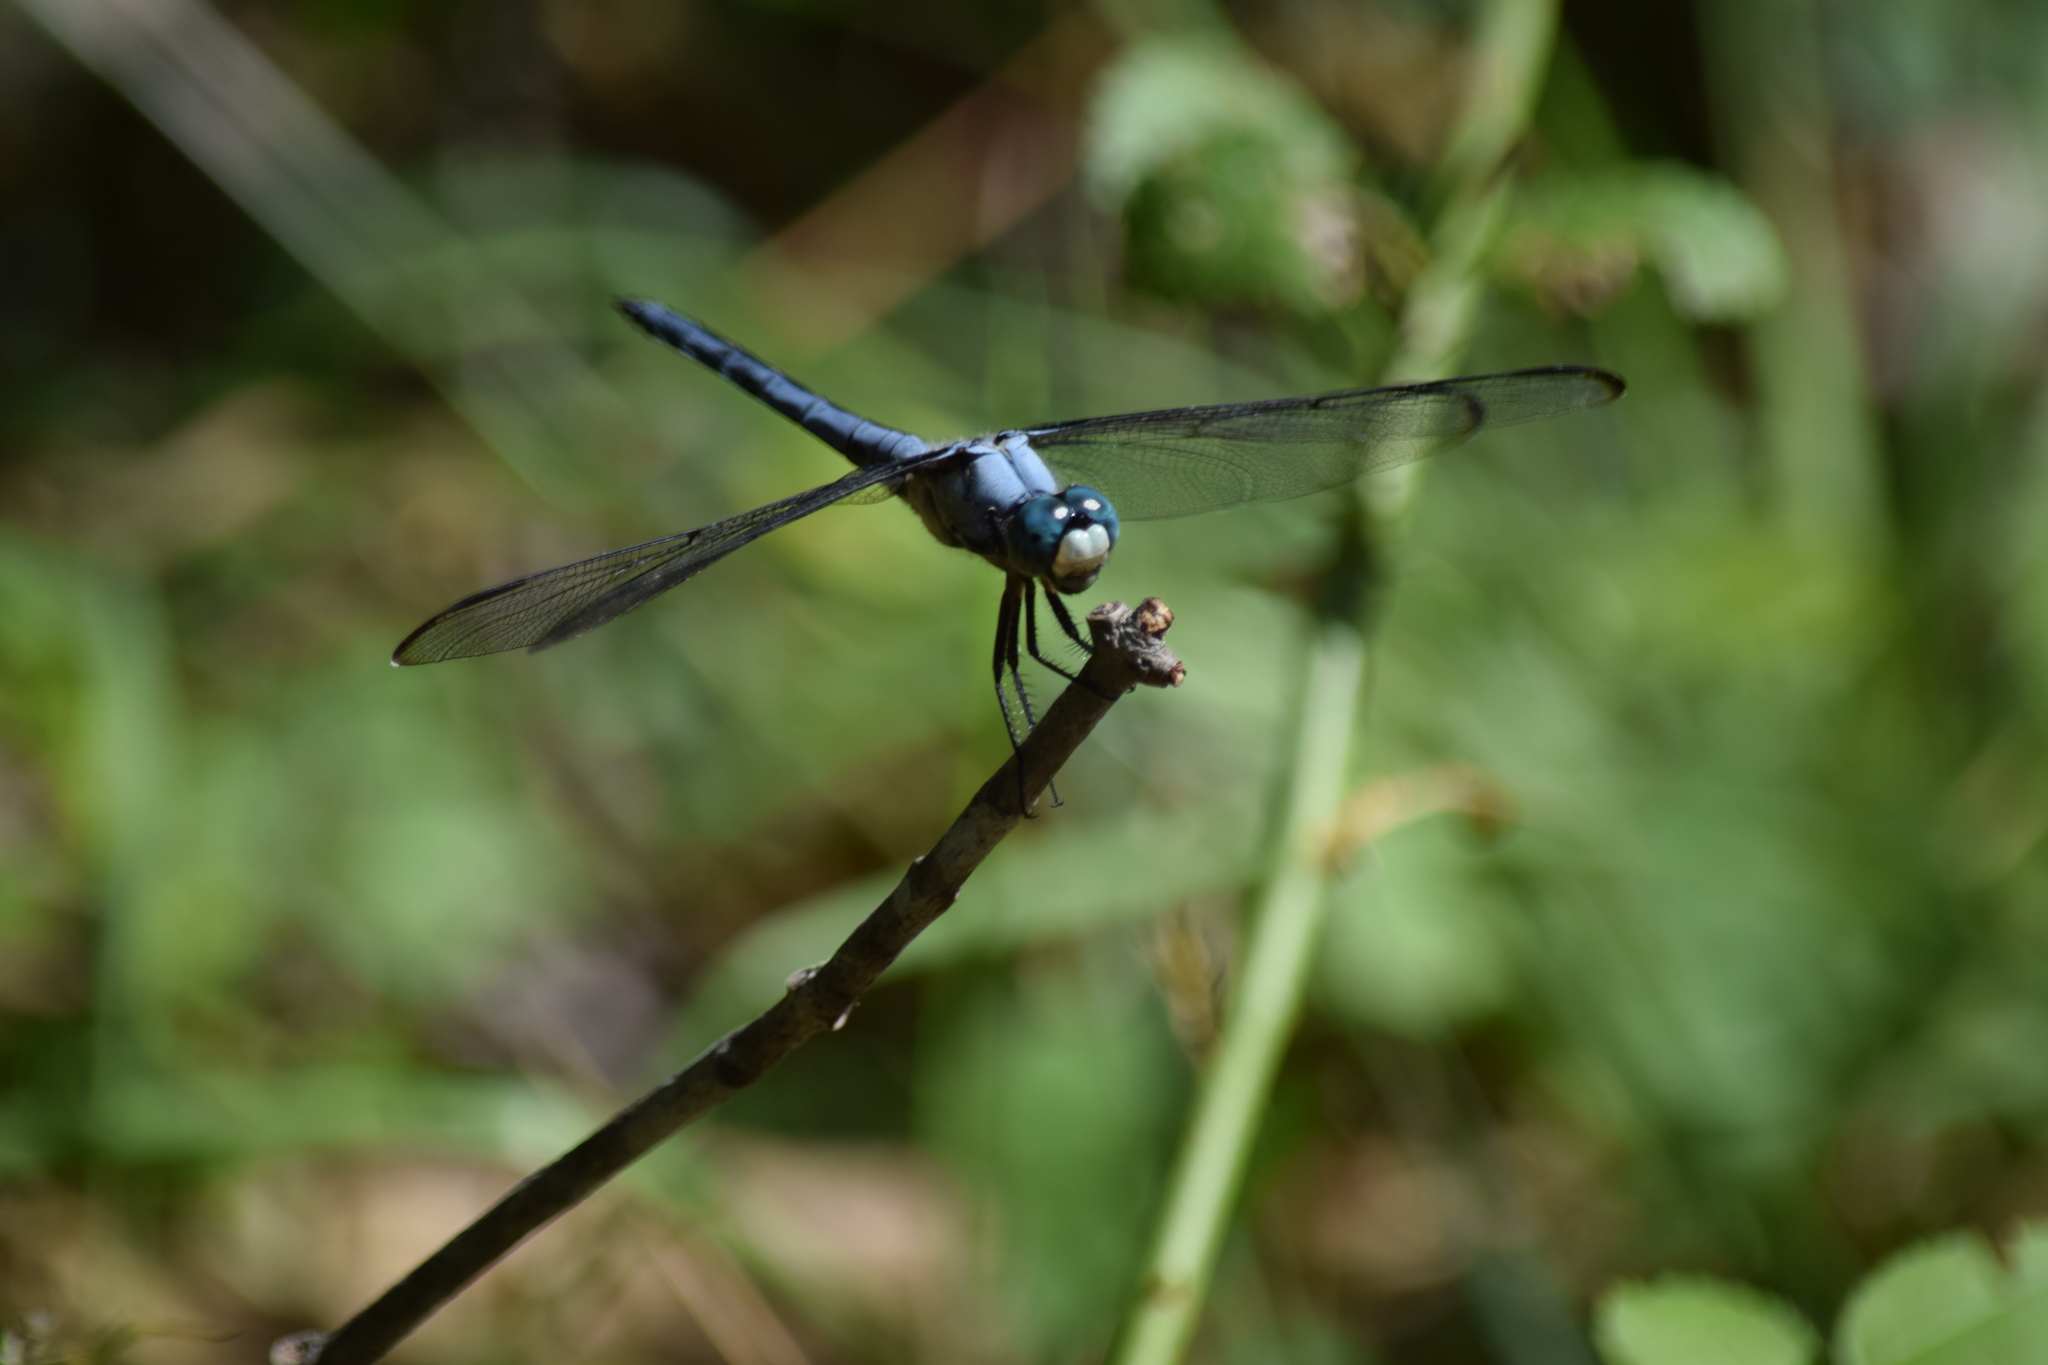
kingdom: Animalia
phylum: Arthropoda
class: Insecta
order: Odonata
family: Libellulidae
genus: Libellula
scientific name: Libellula vibrans
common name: Great blue skimmer
